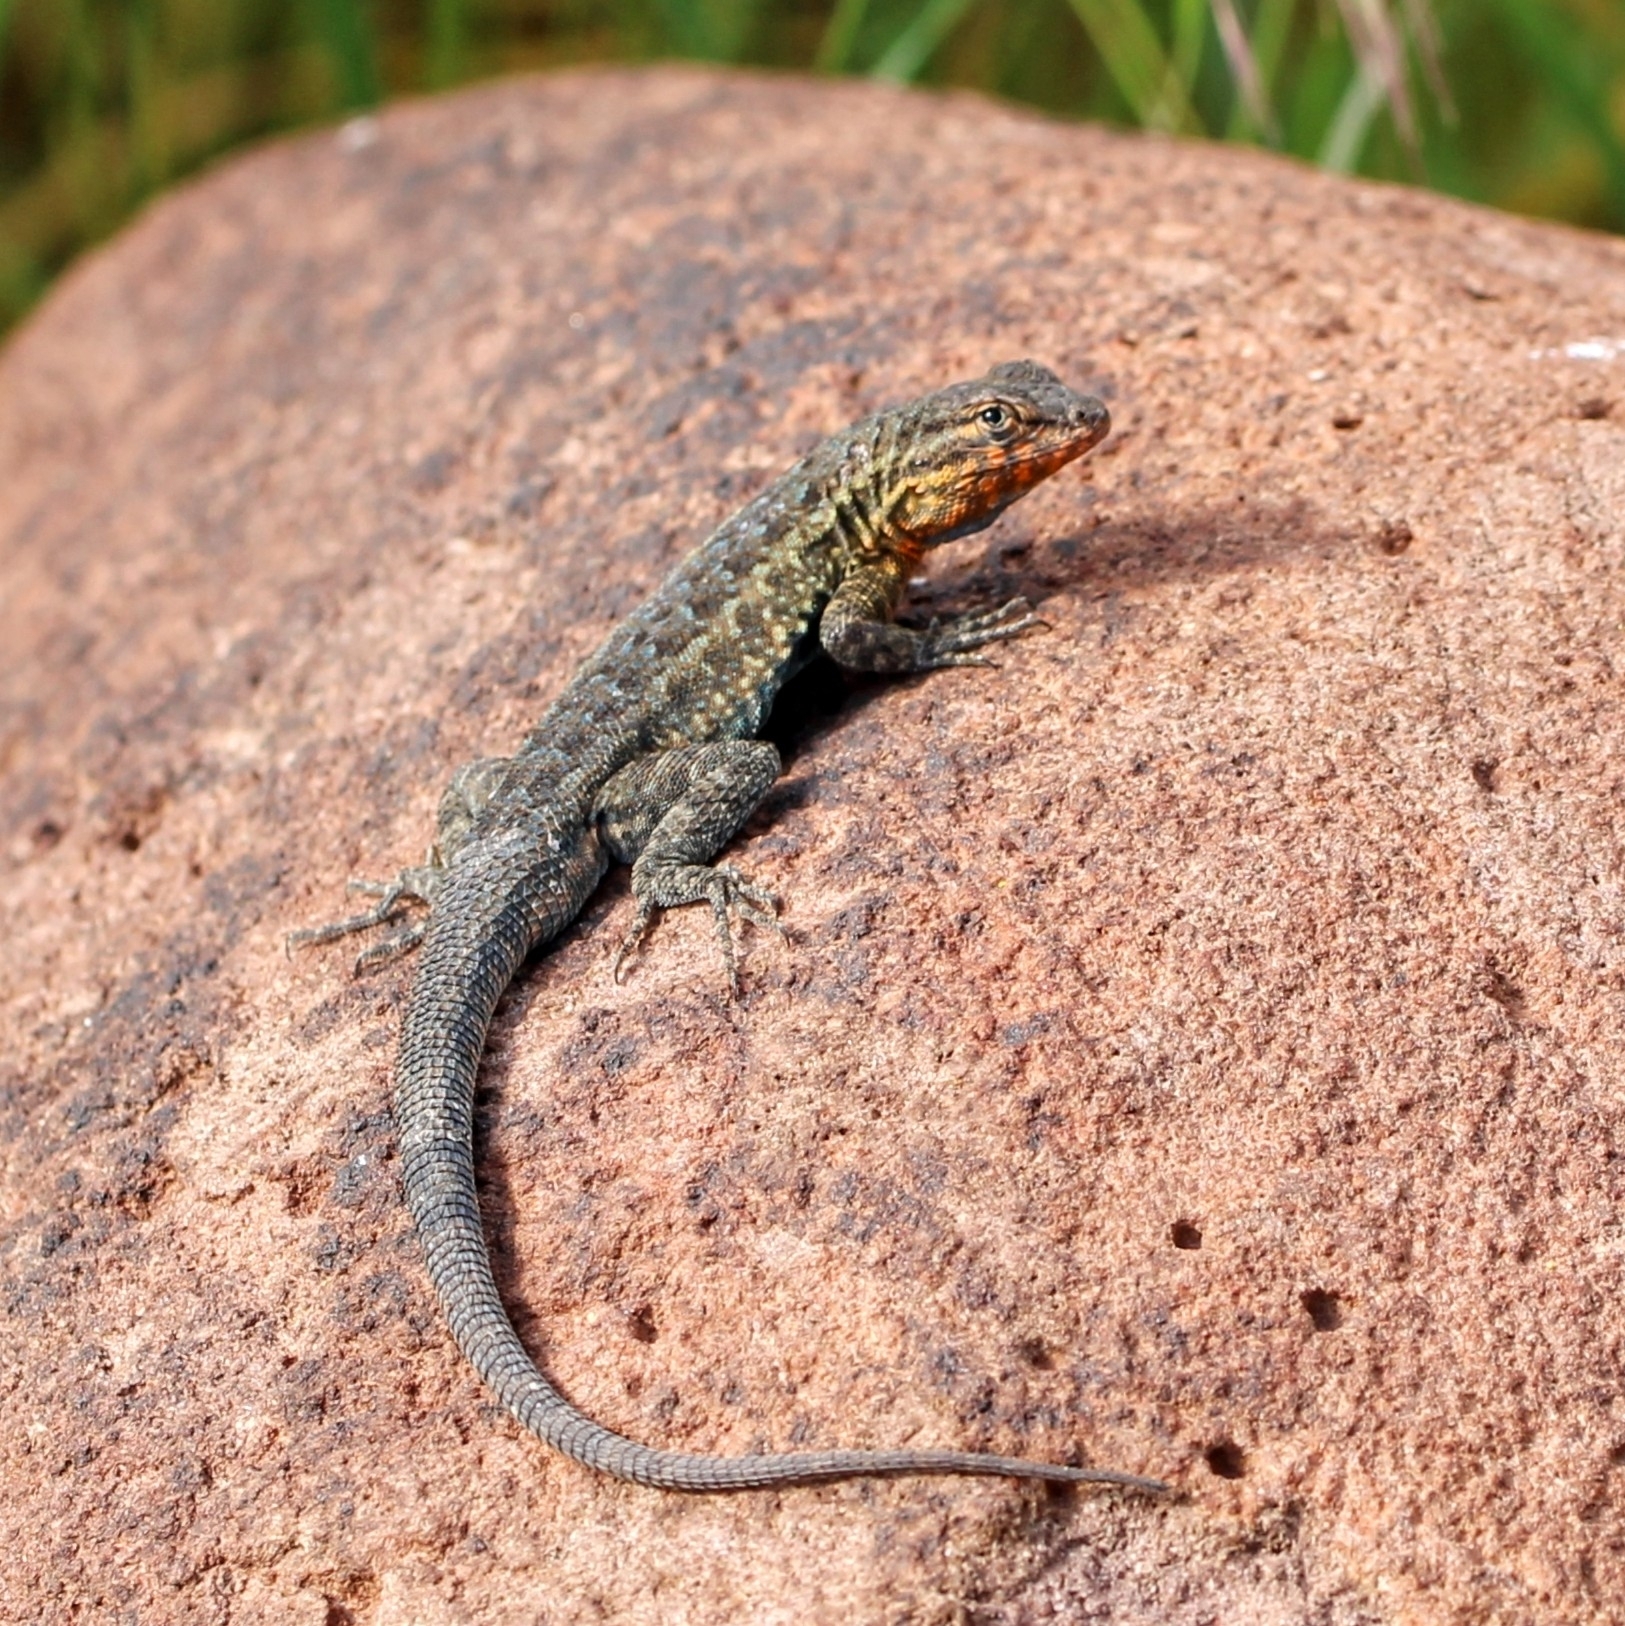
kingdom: Animalia
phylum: Chordata
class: Squamata
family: Phrynosomatidae
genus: Uta
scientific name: Uta stansburiana
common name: Side-blotched lizard
